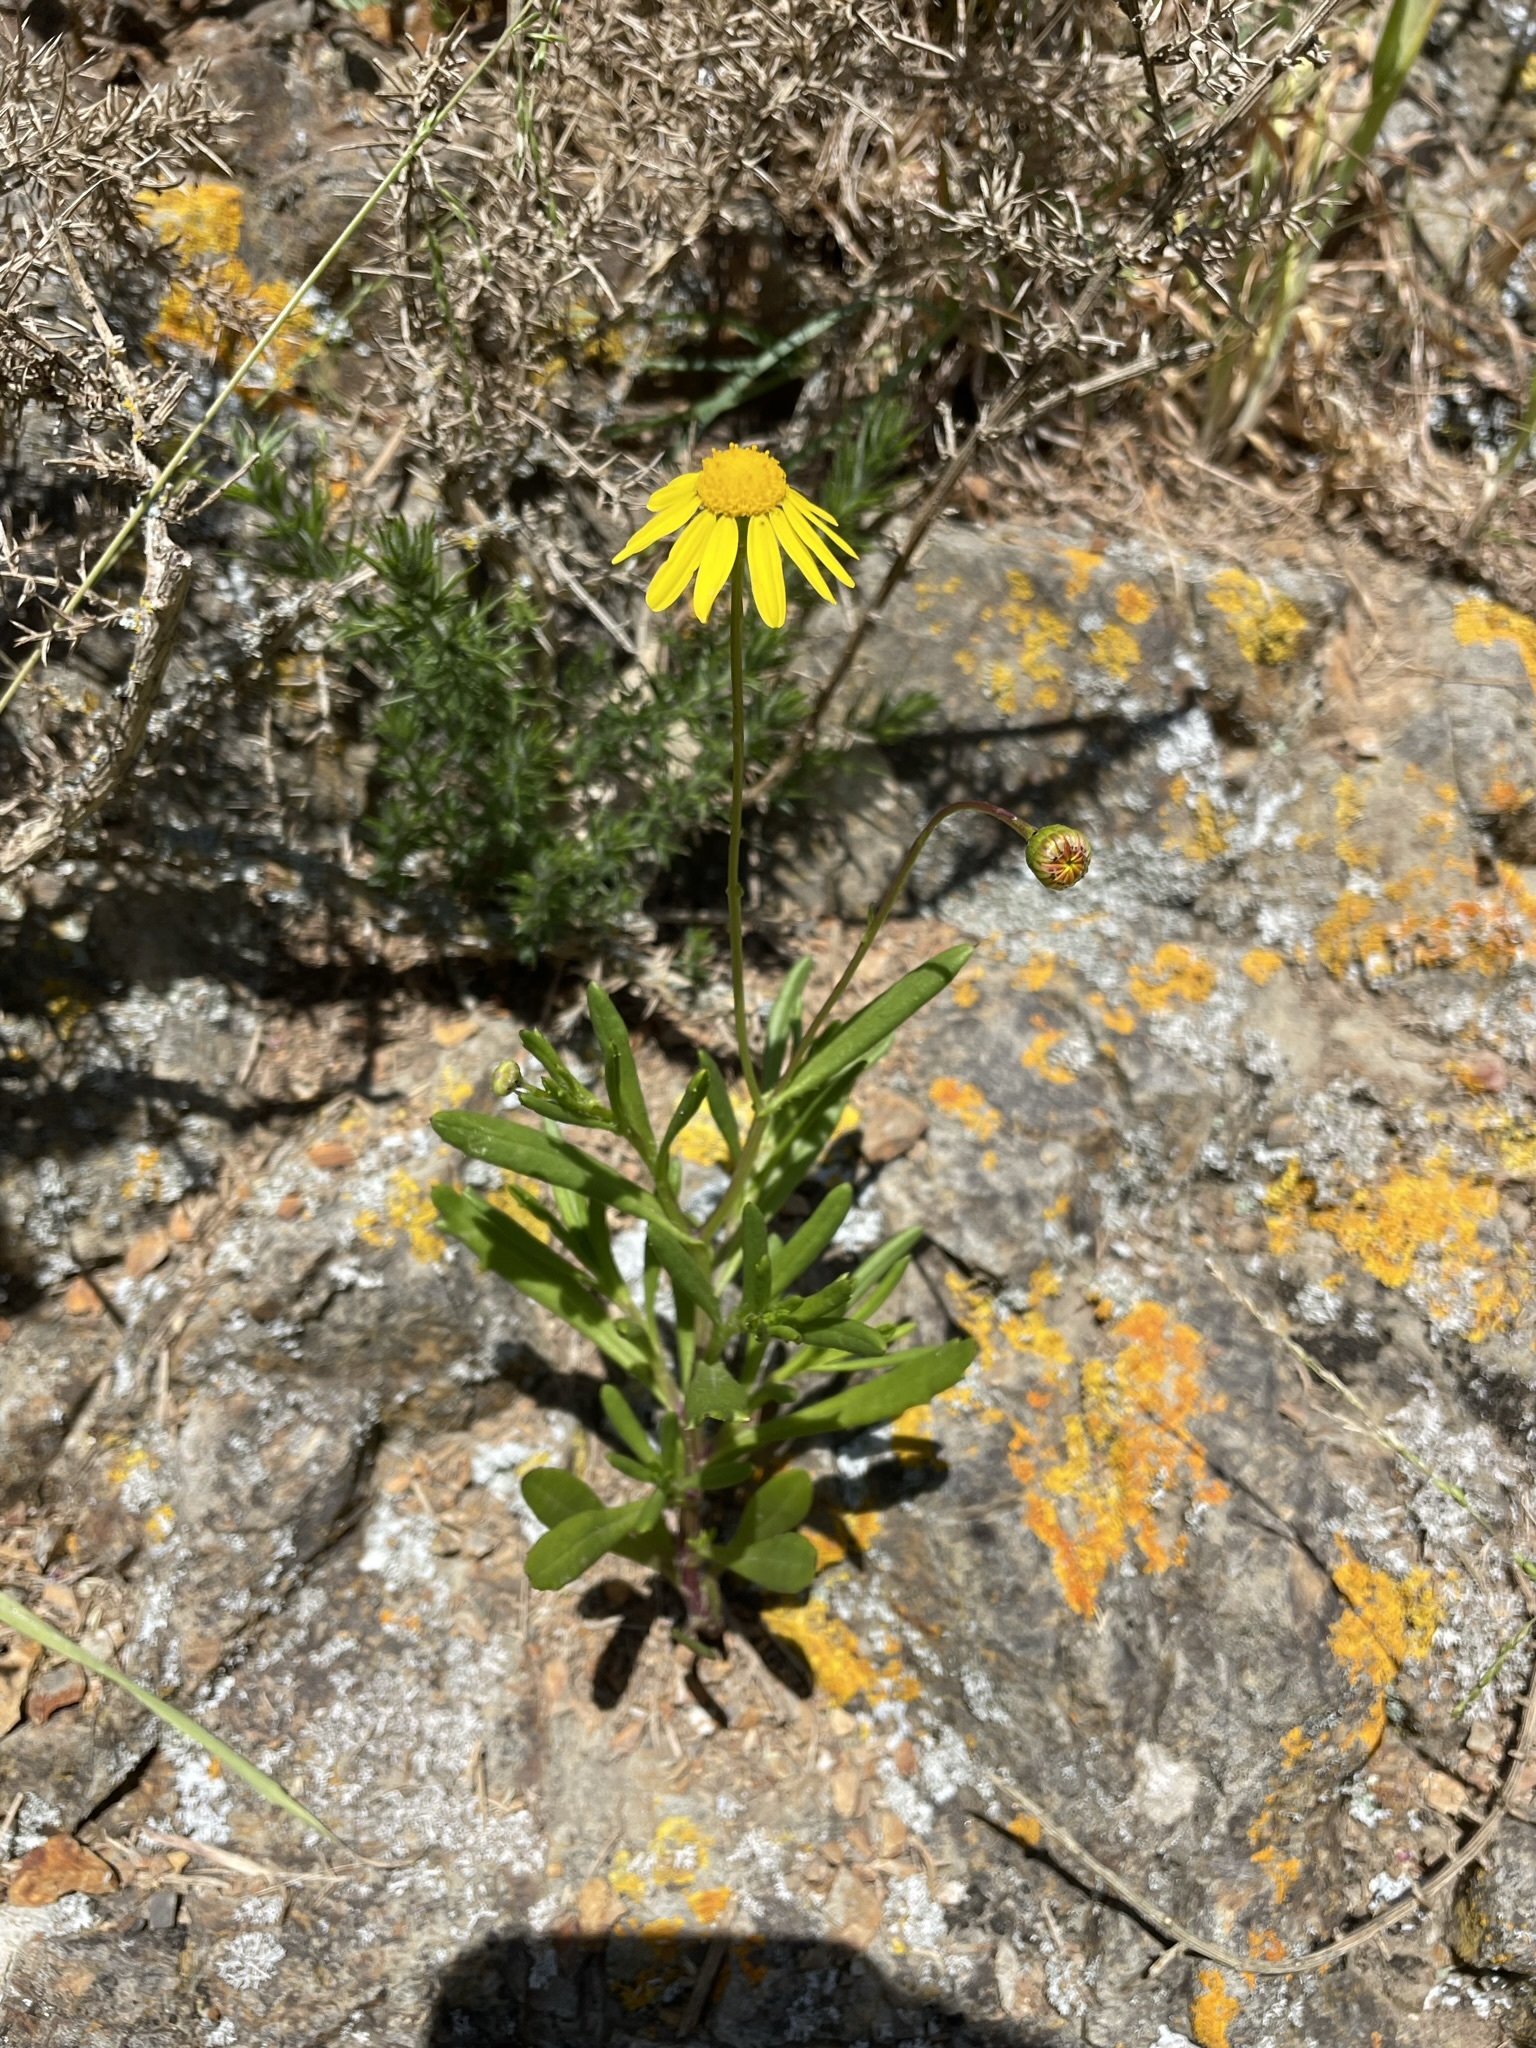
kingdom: Plantae
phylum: Tracheophyta
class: Magnoliopsida
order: Asterales
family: Asteraceae
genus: Senecio
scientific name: Senecio skirrhodon
